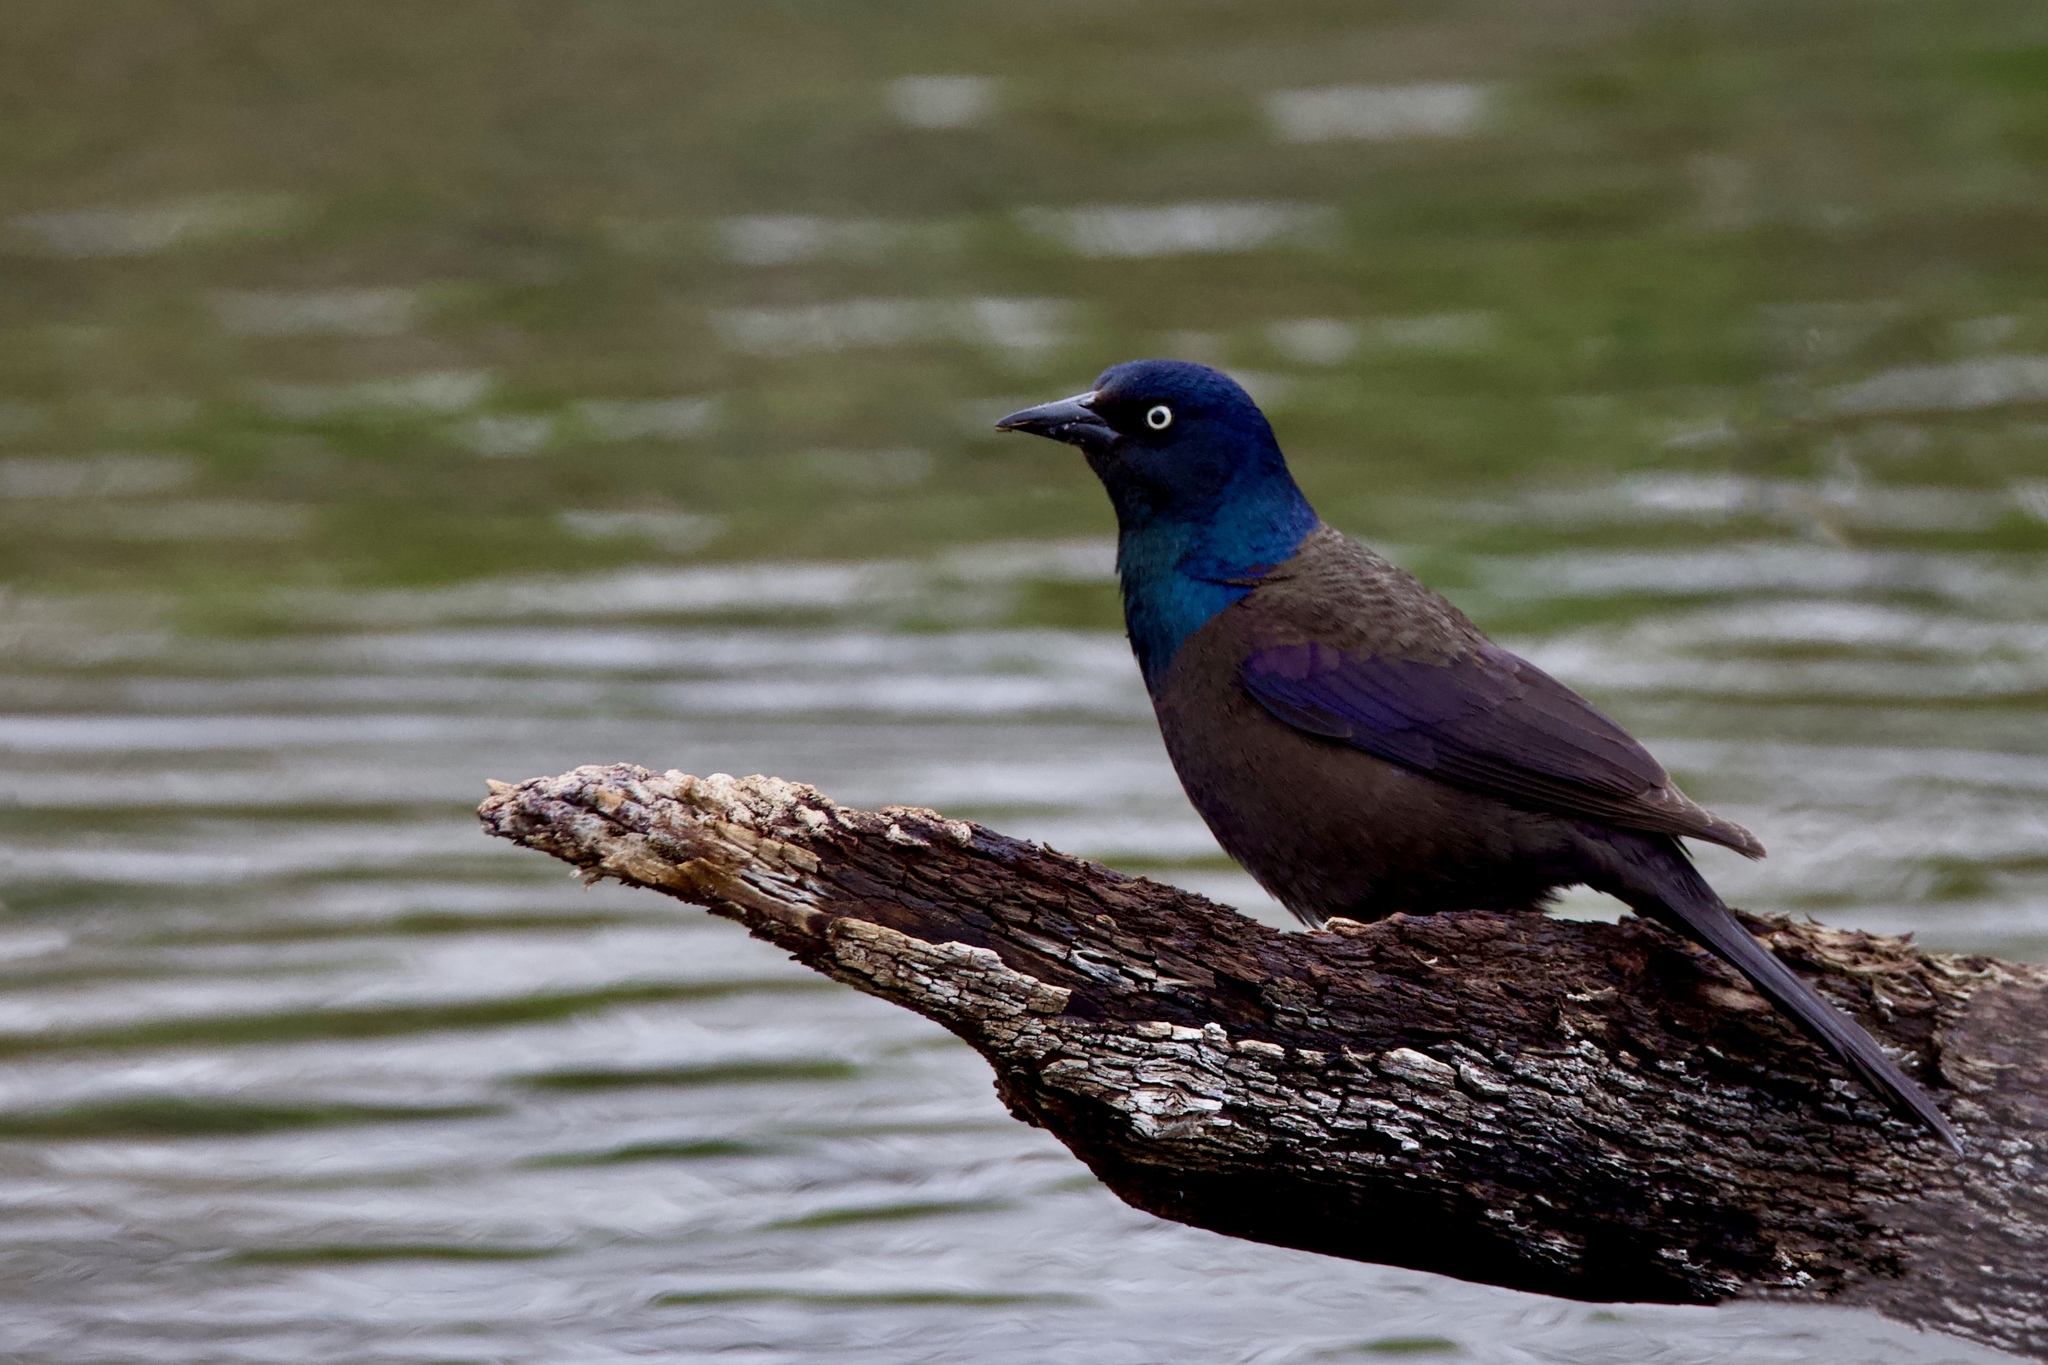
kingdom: Animalia
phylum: Chordata
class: Aves
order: Passeriformes
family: Icteridae
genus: Quiscalus
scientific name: Quiscalus quiscula
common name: Common grackle
